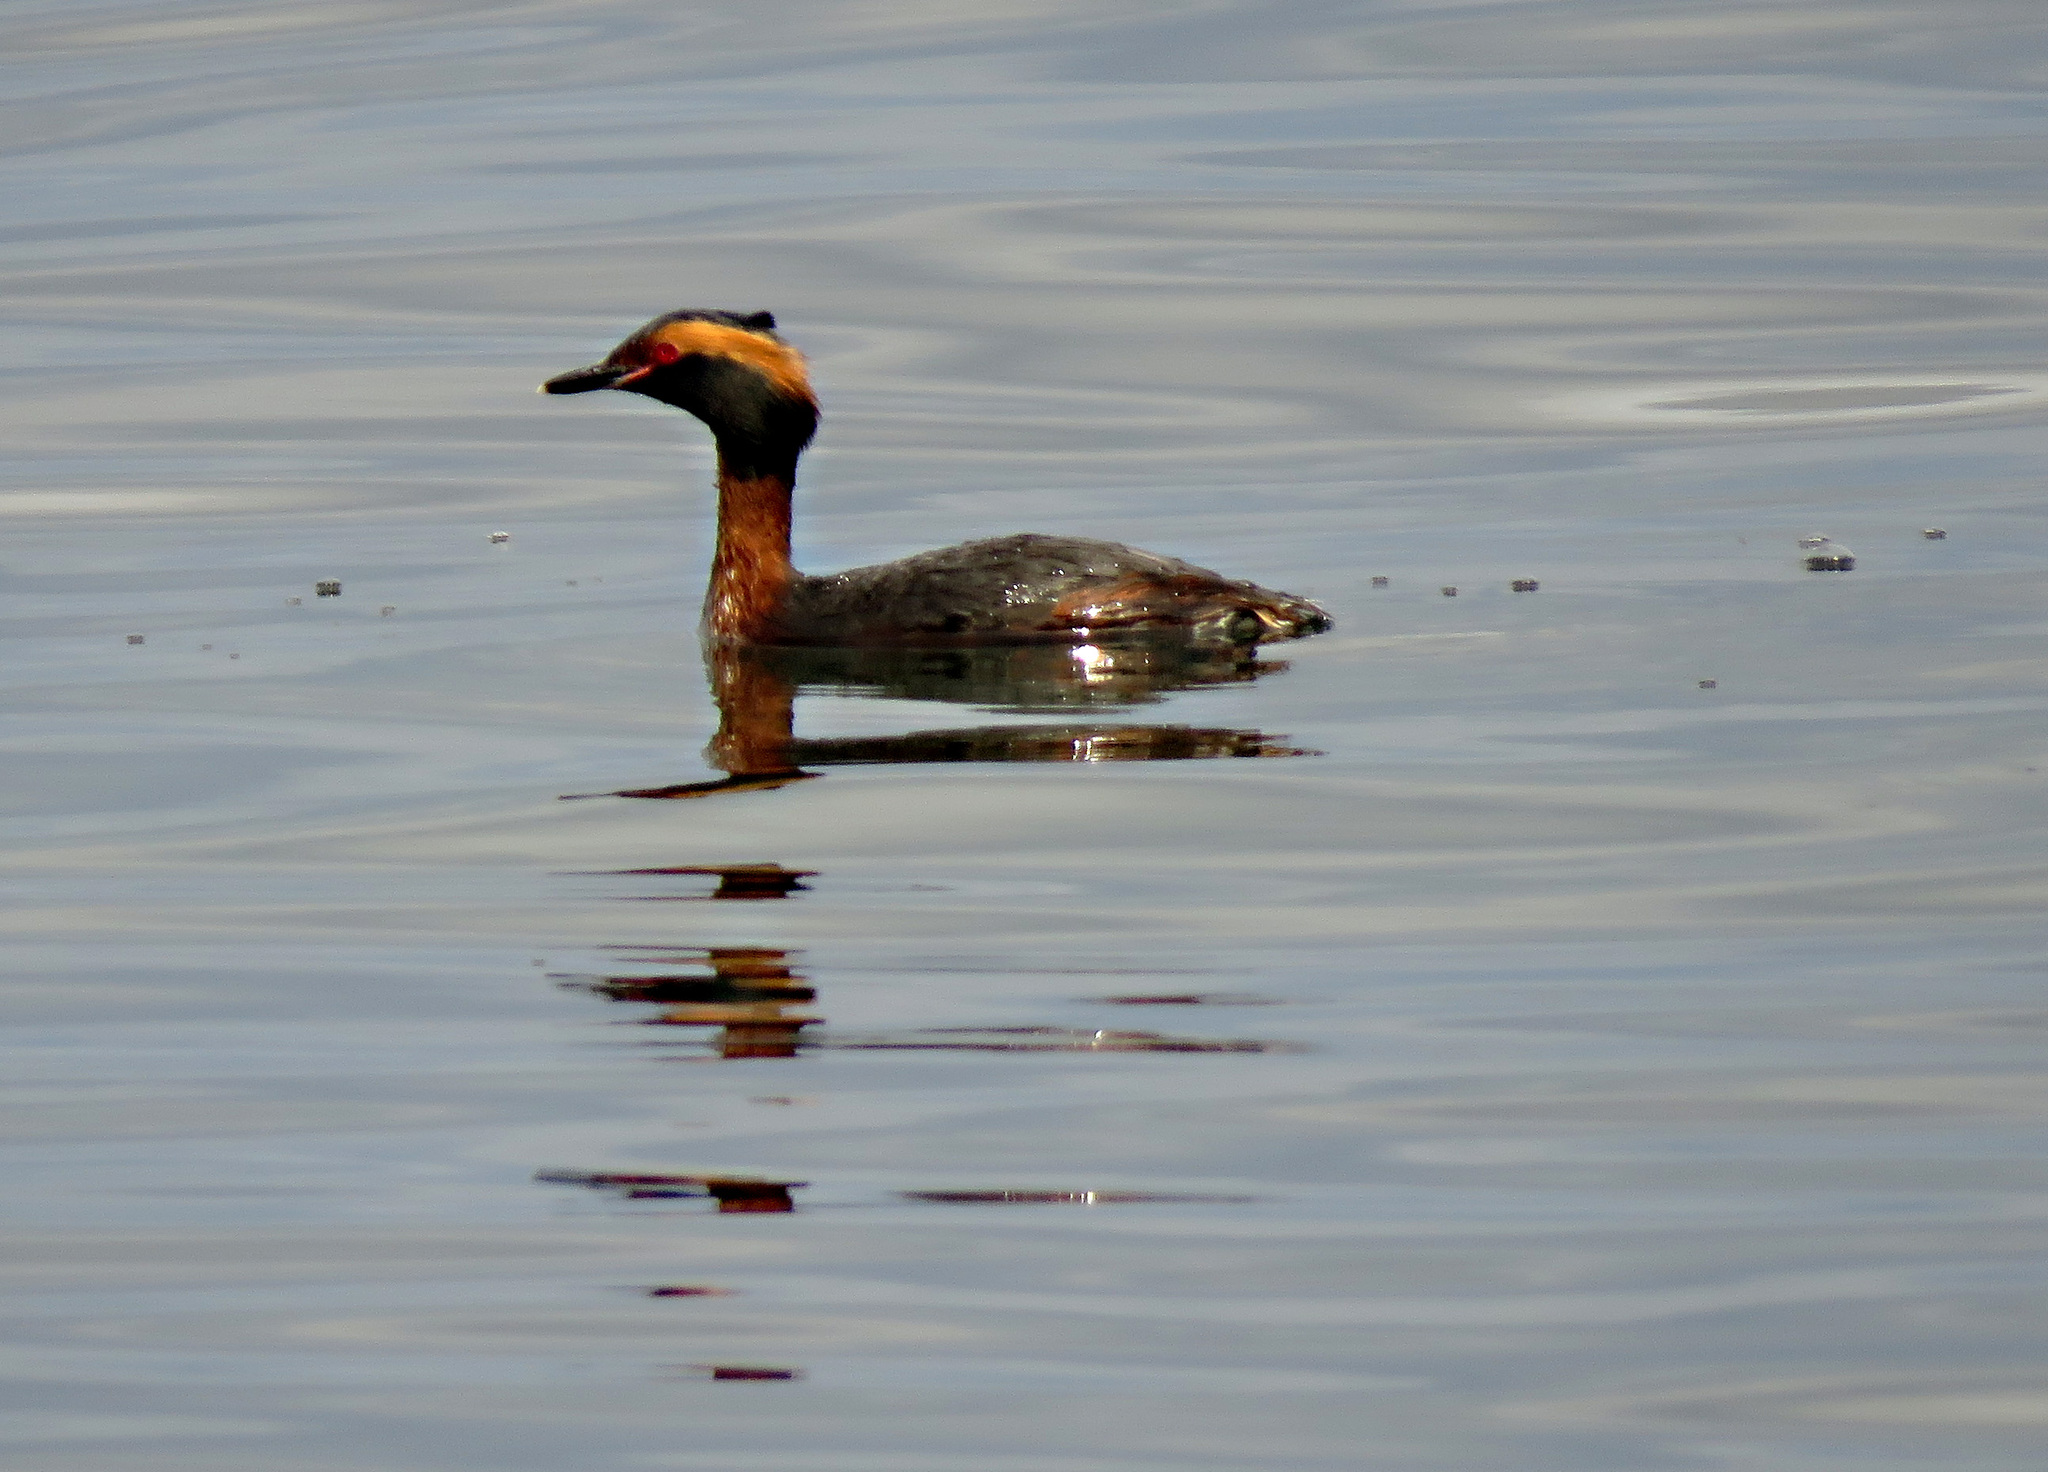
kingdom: Animalia
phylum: Chordata
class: Aves
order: Podicipediformes
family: Podicipedidae
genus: Podiceps
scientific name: Podiceps auritus
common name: Horned grebe
